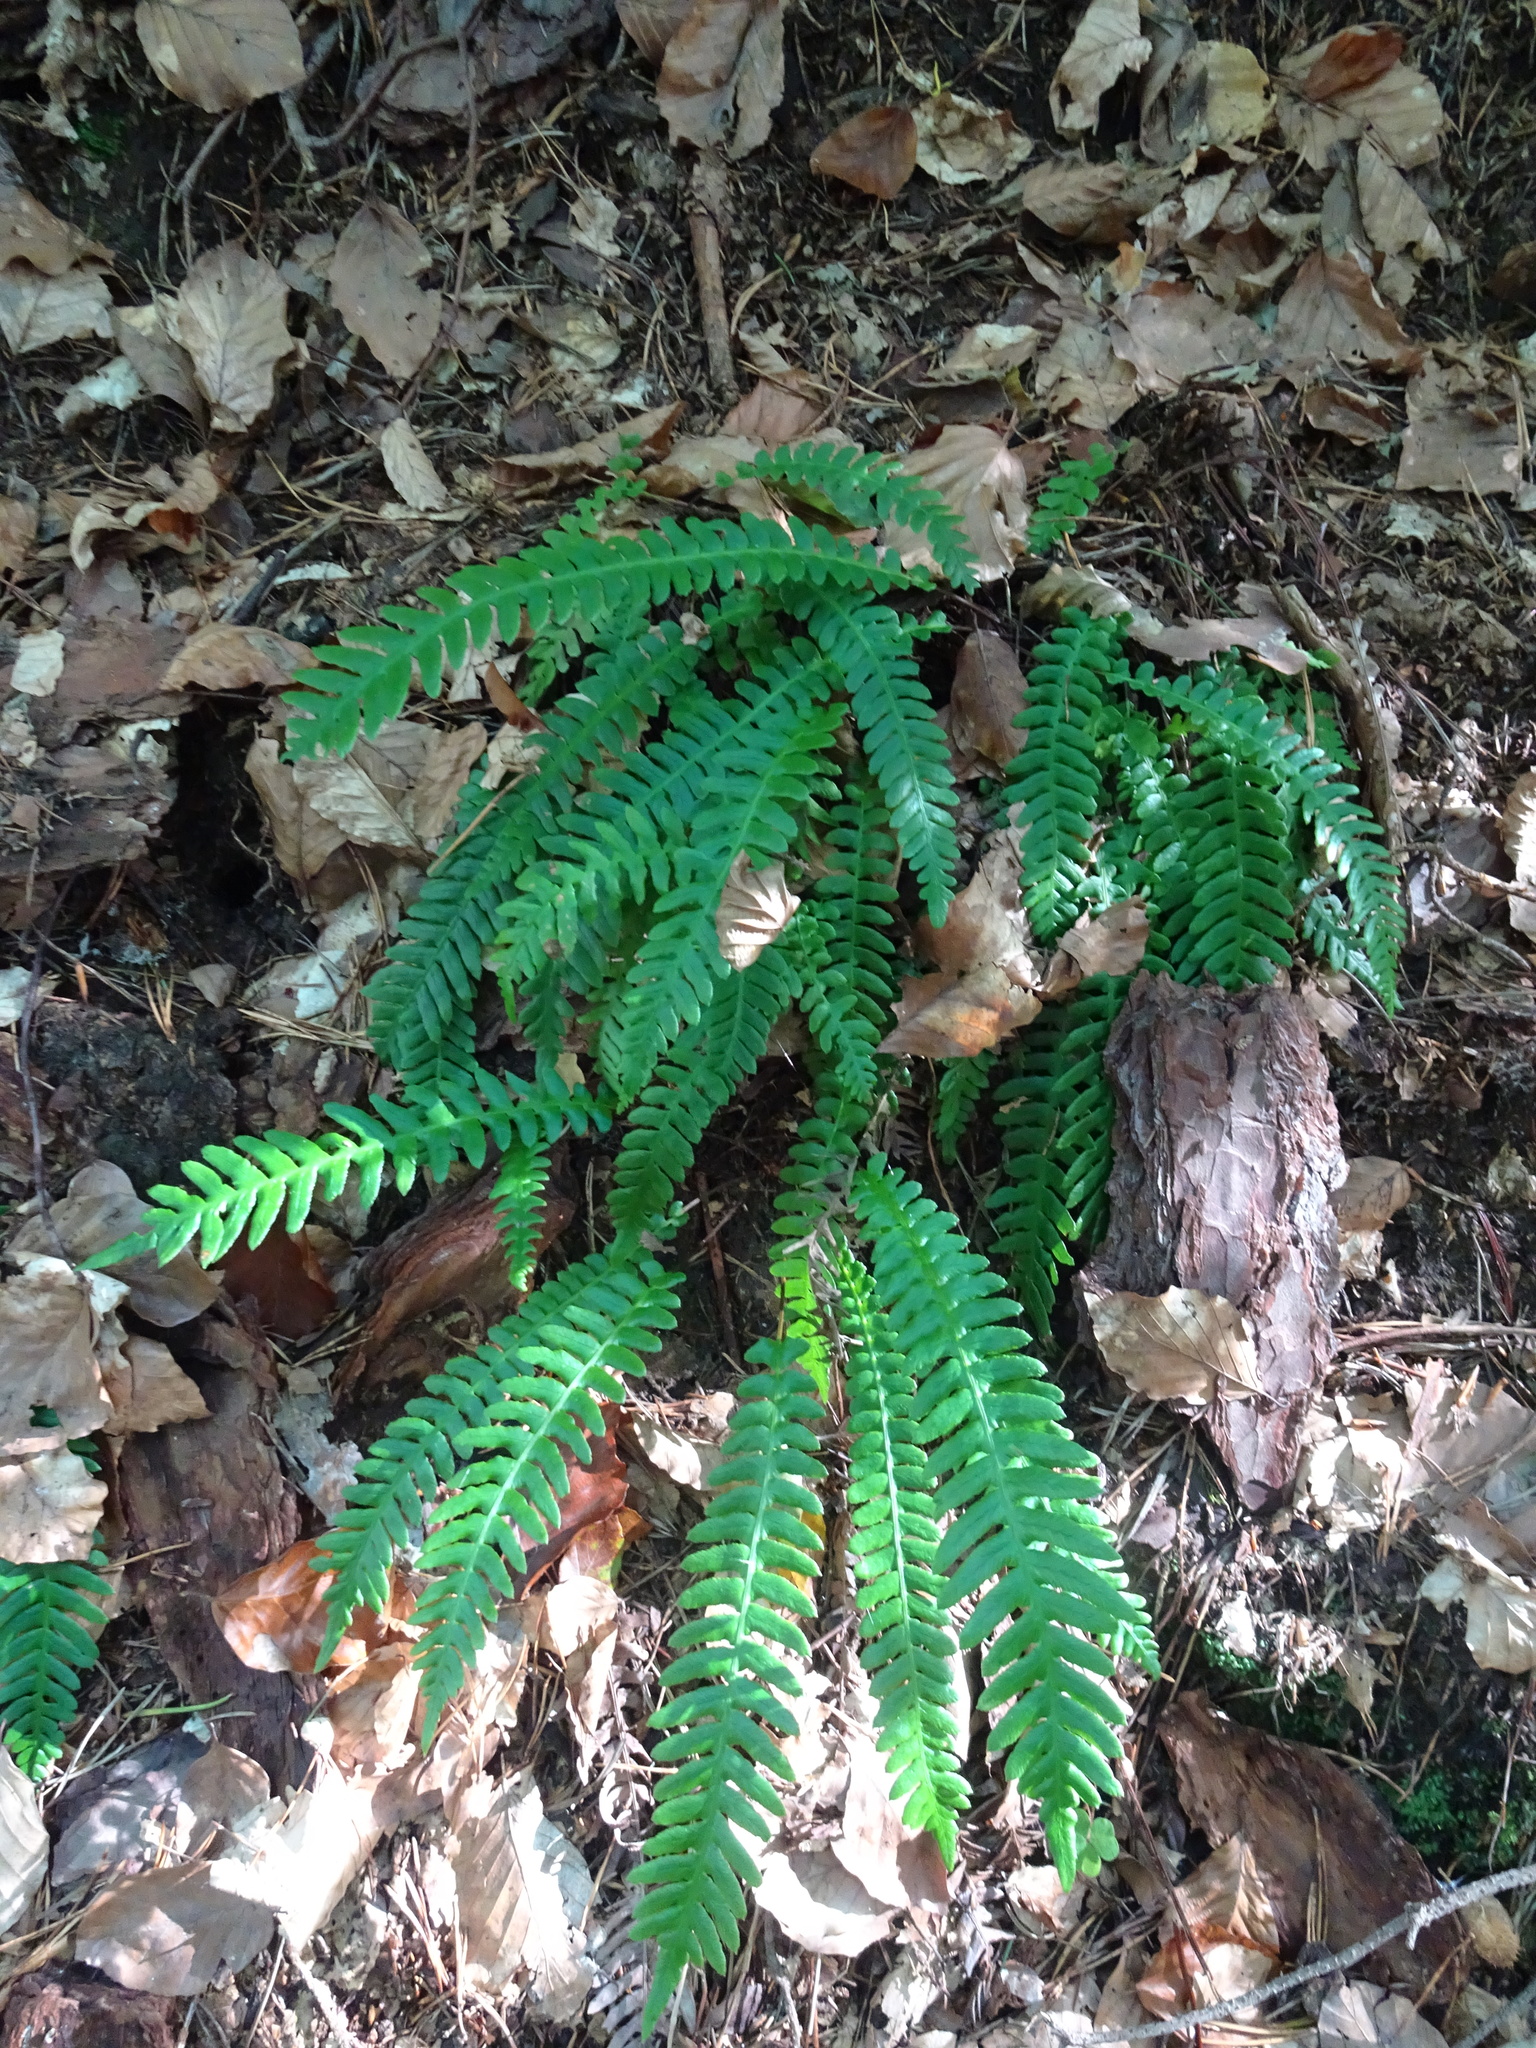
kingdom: Plantae
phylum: Tracheophyta
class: Polypodiopsida
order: Polypodiales
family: Blechnaceae
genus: Struthiopteris
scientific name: Struthiopteris spicant
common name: Deer fern
